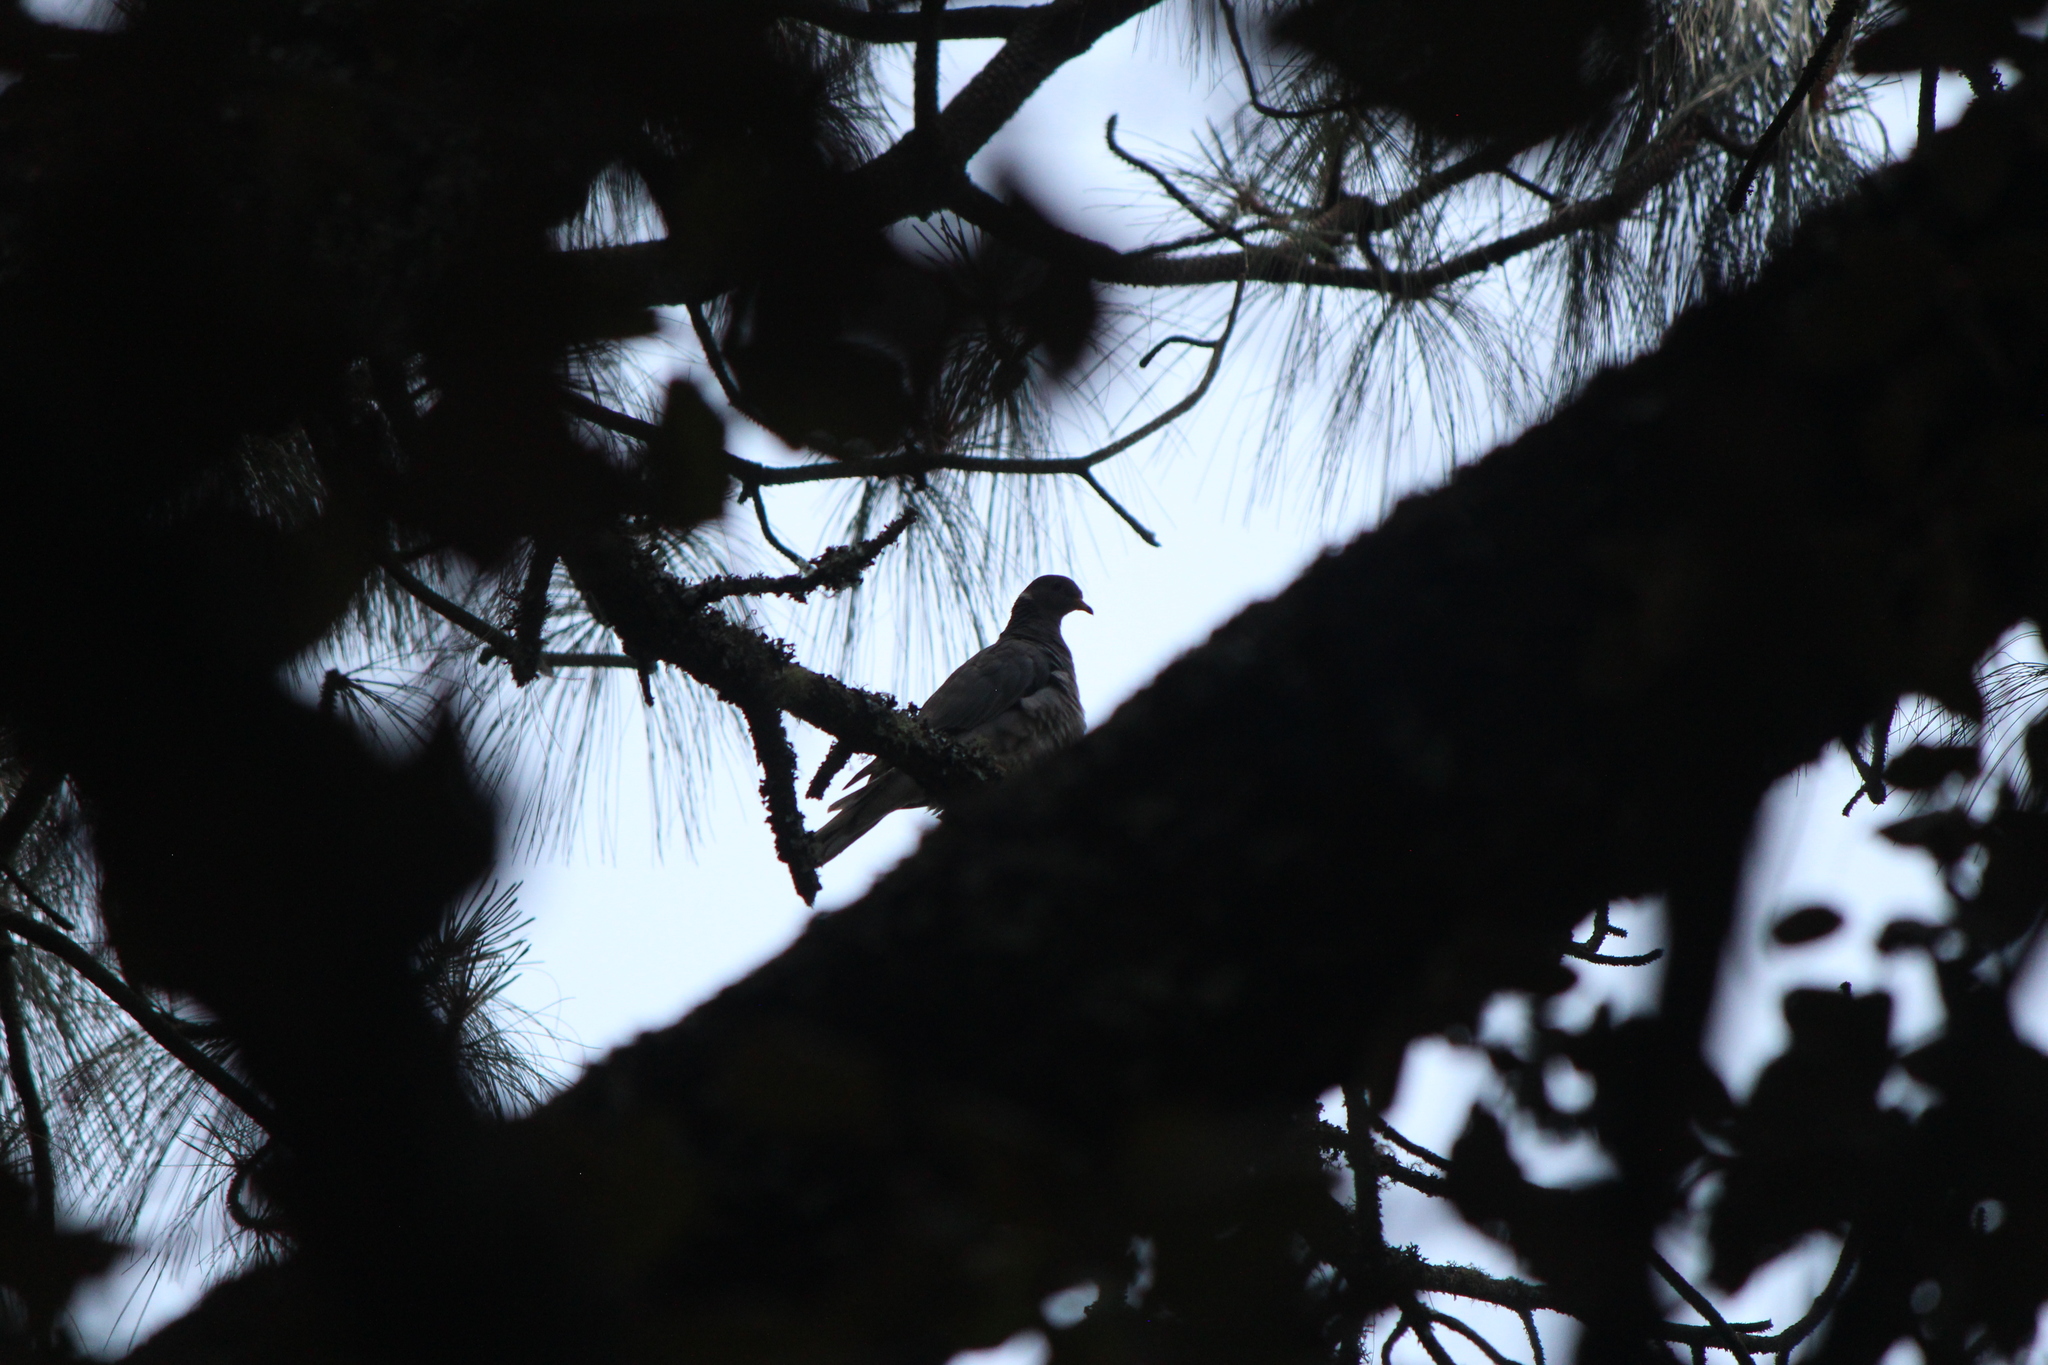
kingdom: Animalia
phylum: Chordata
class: Aves
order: Columbiformes
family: Columbidae
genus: Patagioenas
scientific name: Patagioenas fasciata
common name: Band-tailed pigeon
